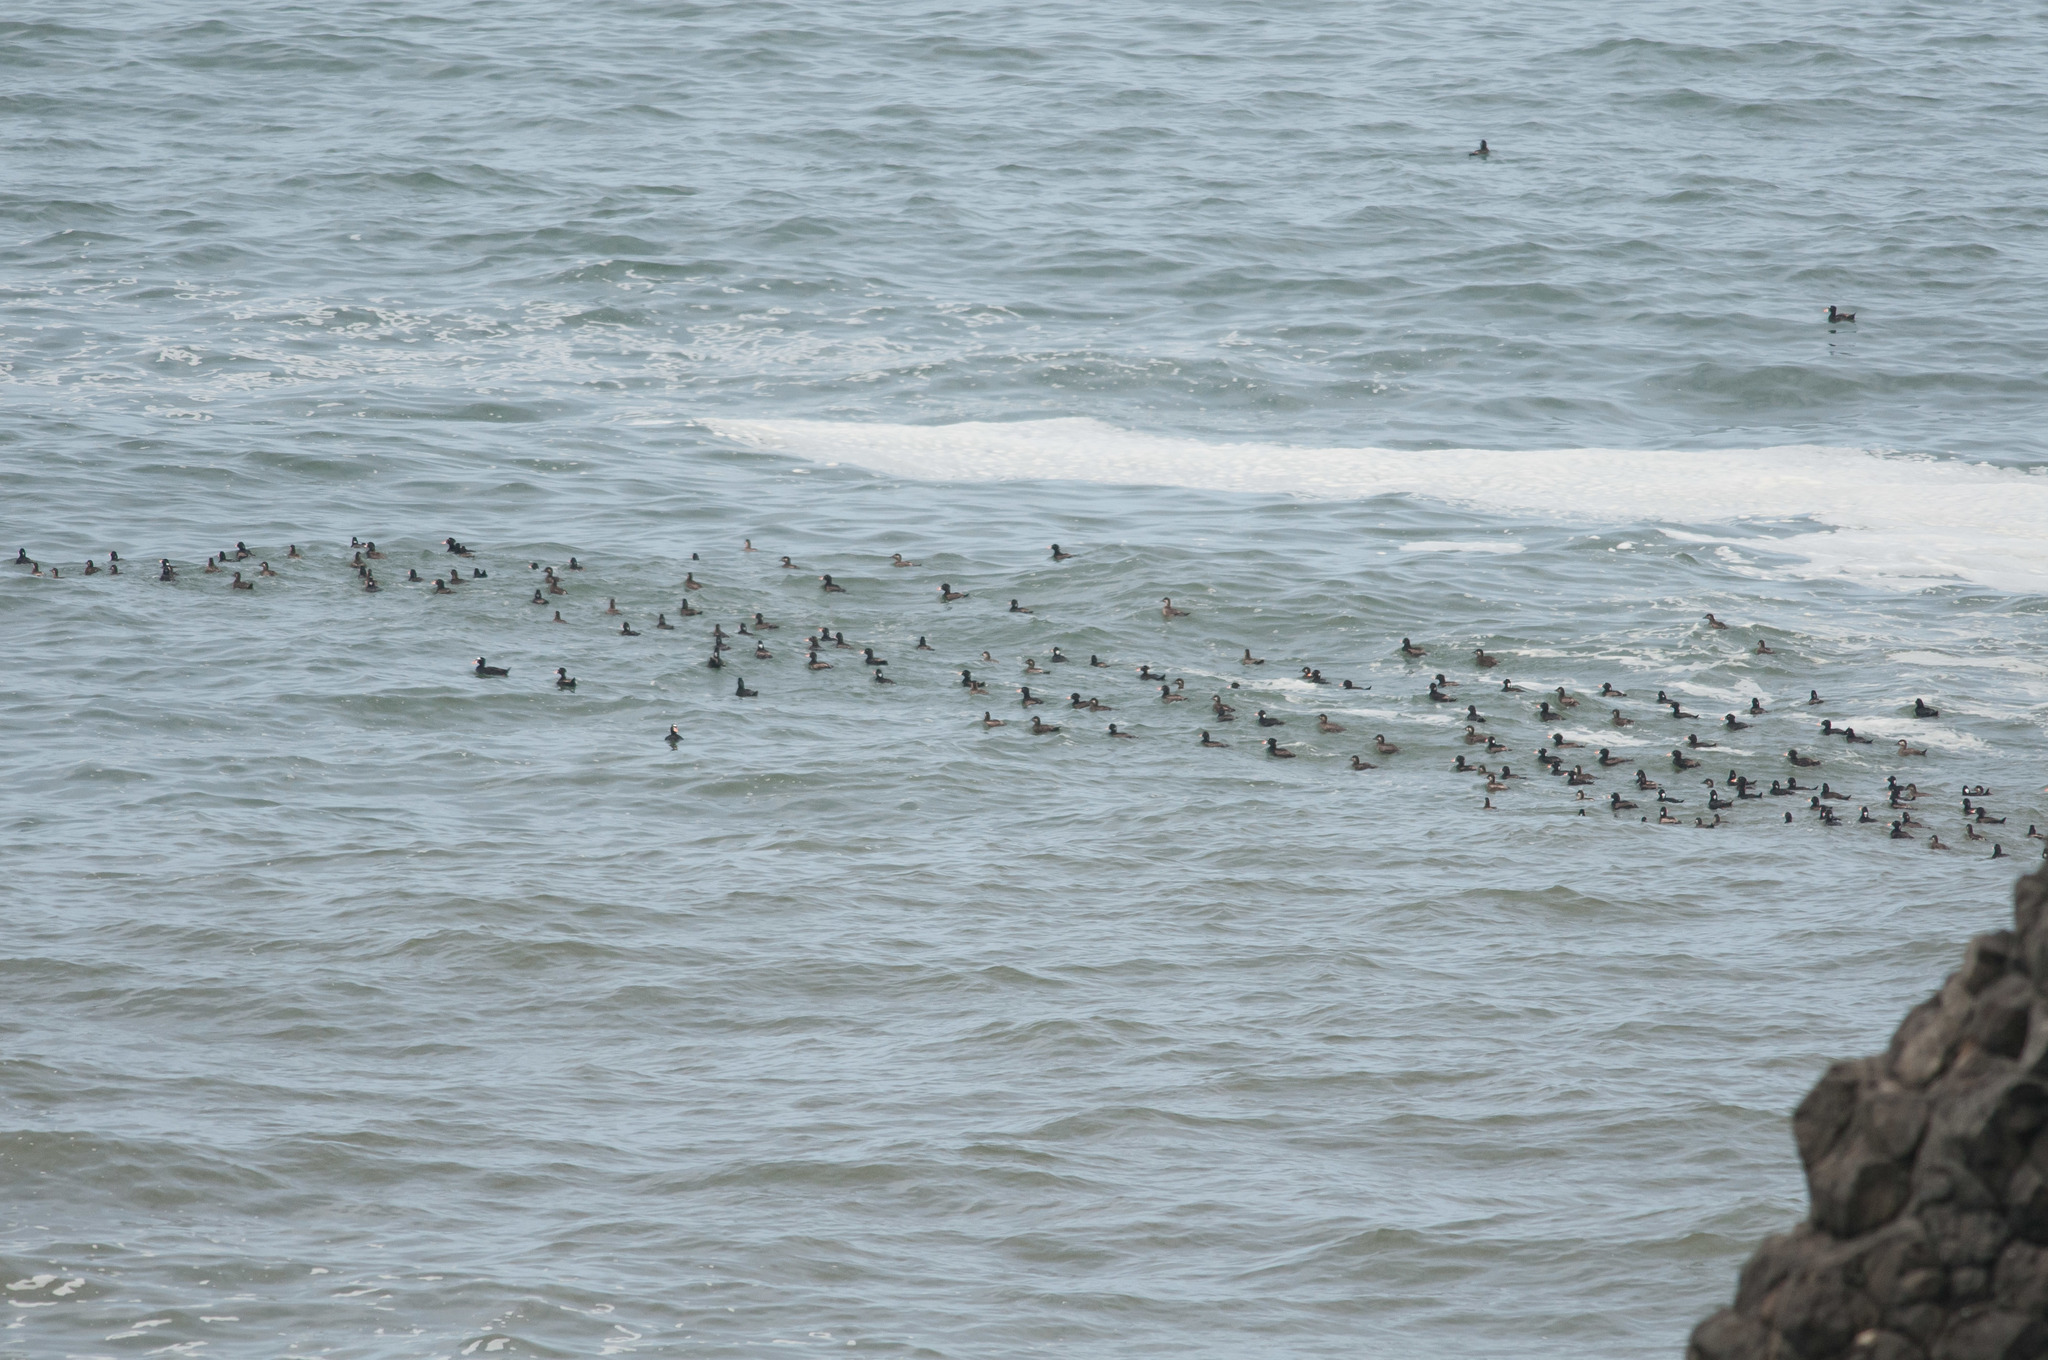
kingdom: Animalia
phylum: Chordata
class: Aves
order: Anseriformes
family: Anatidae
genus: Melanitta
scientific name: Melanitta perspicillata
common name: Surf scoter
